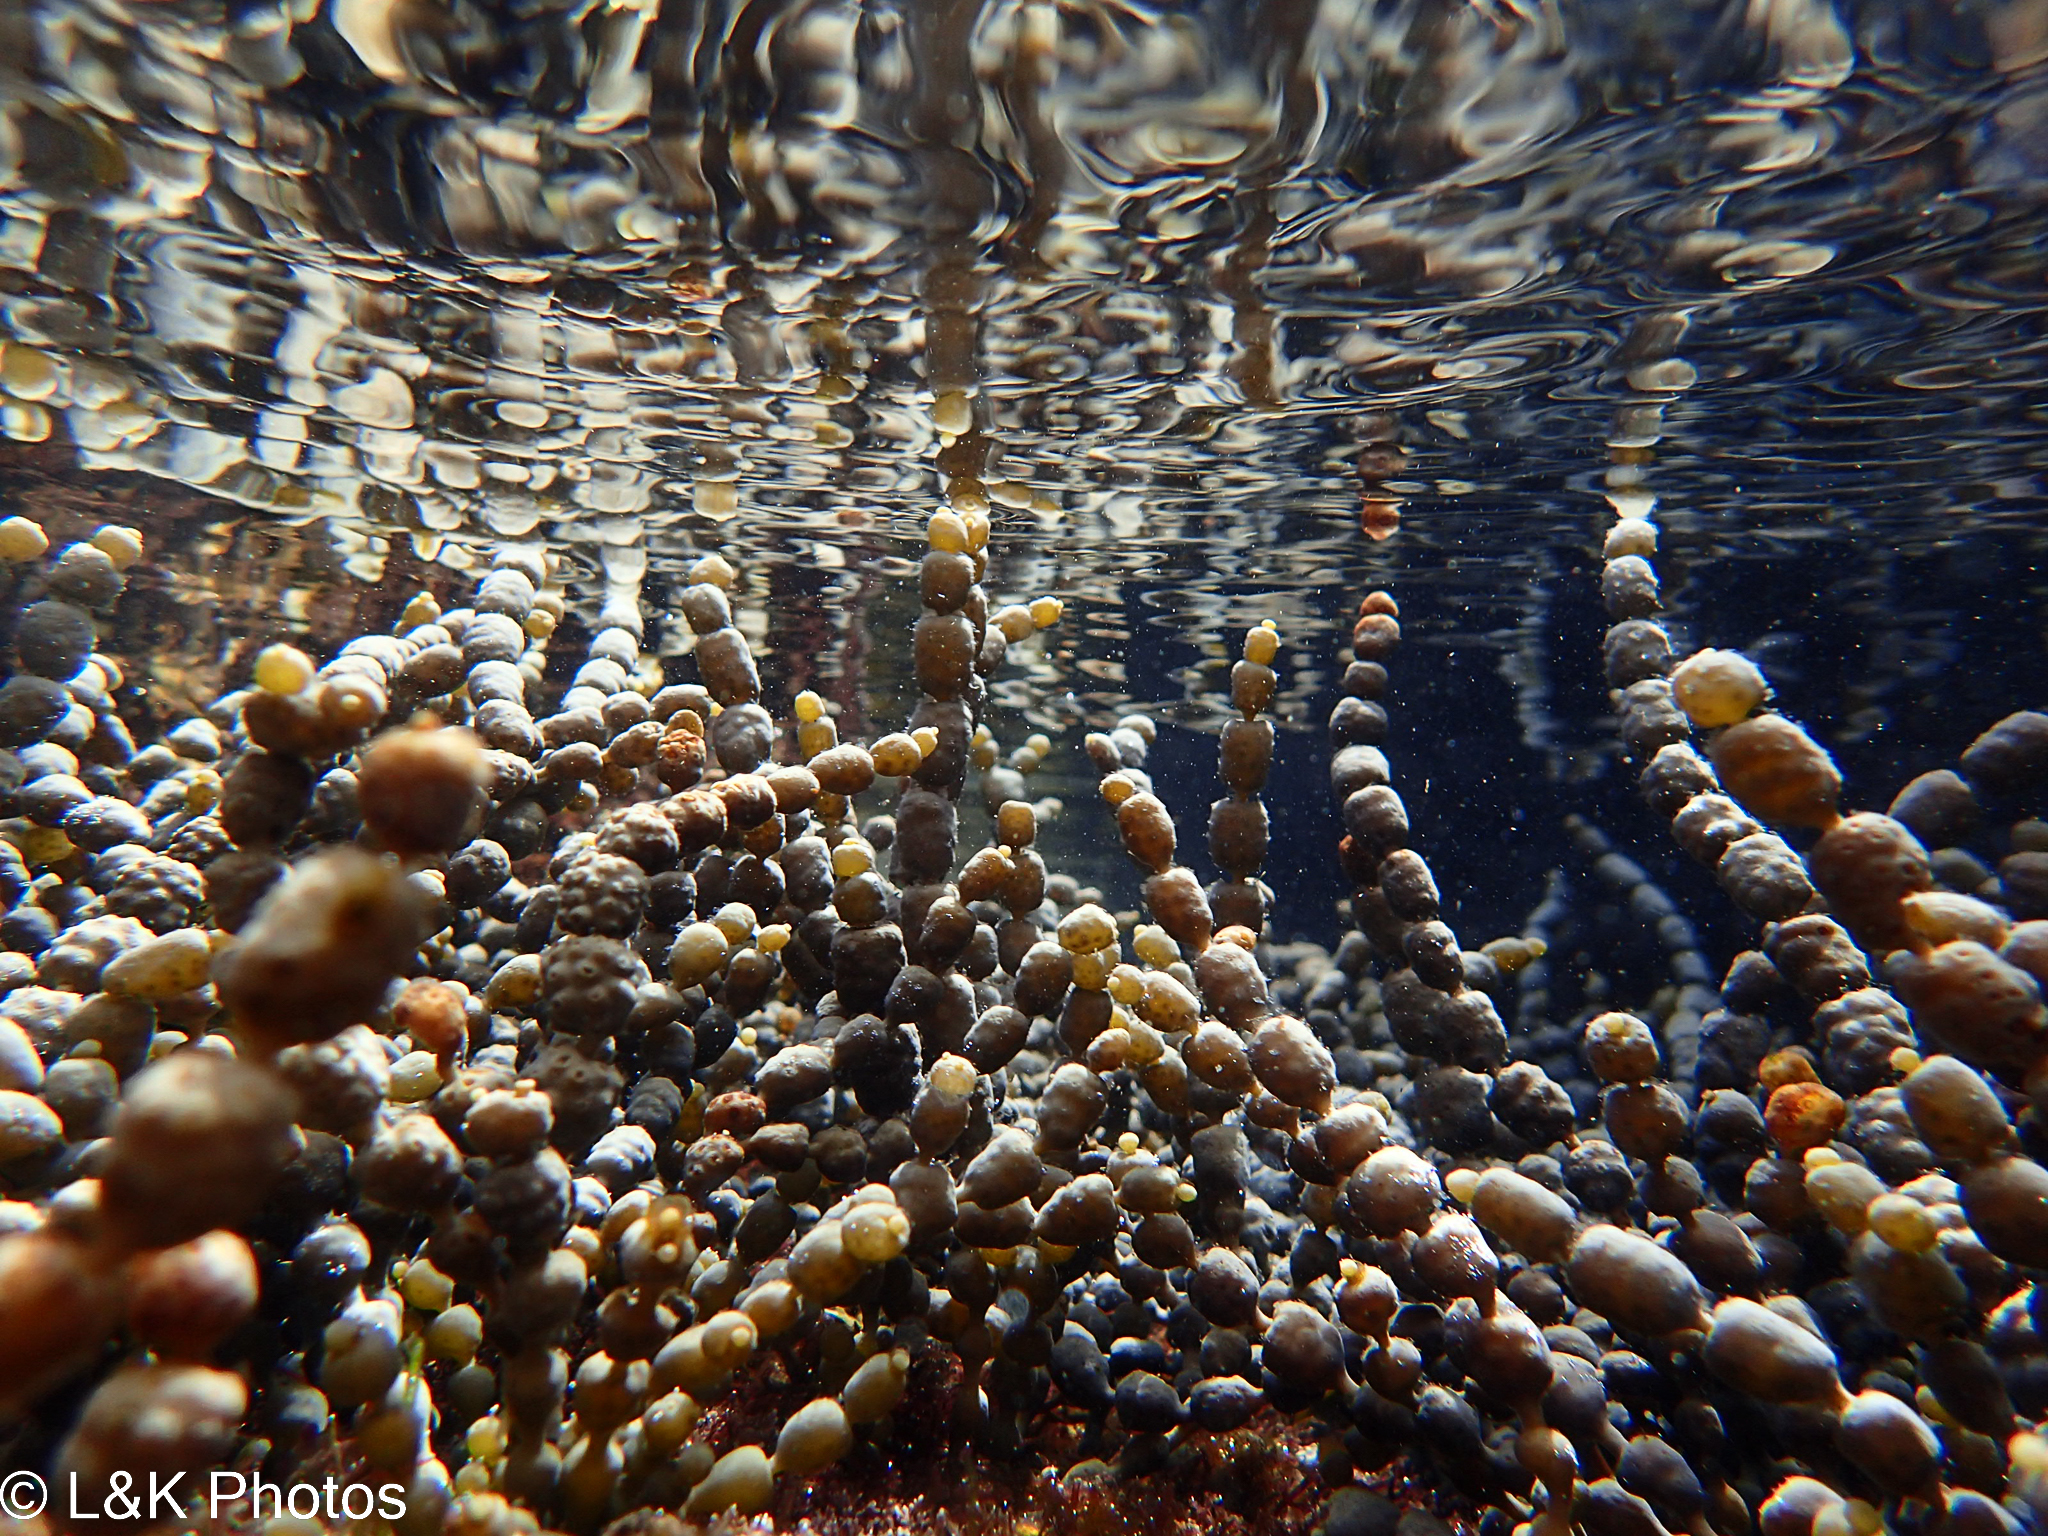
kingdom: Chromista
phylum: Ochrophyta
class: Phaeophyceae
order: Fucales
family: Hormosiraceae
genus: Hormosira
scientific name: Hormosira banksii
